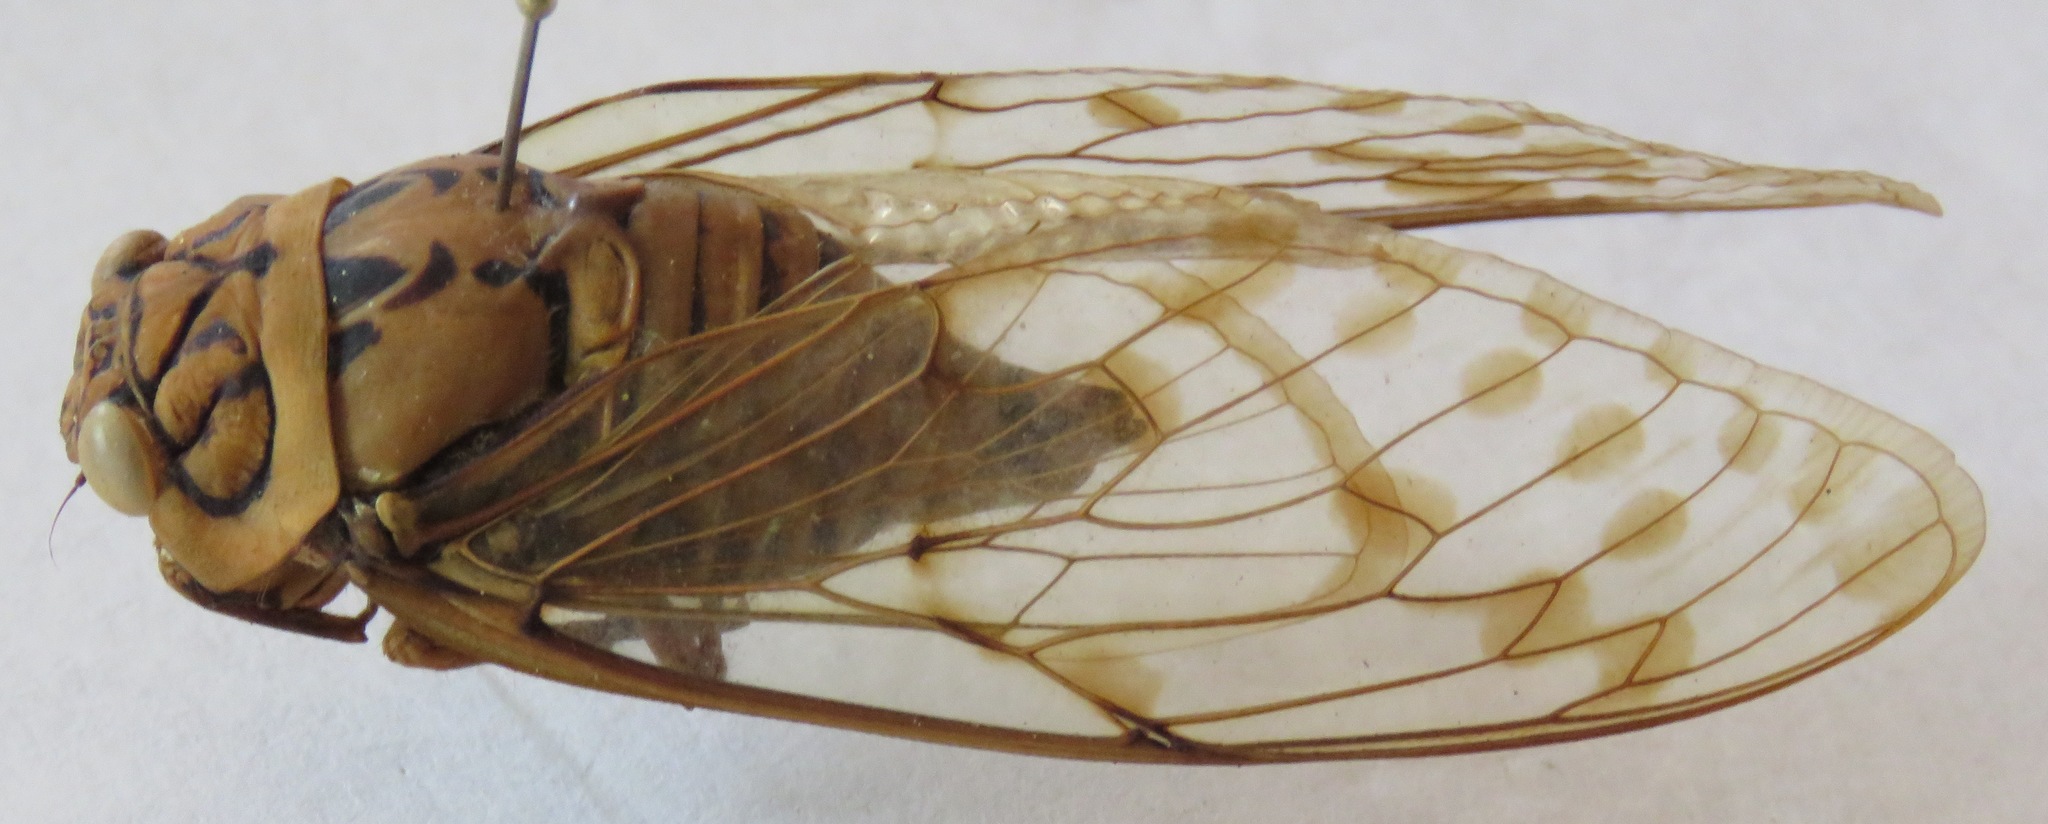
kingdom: Animalia
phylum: Arthropoda
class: Insecta
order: Hemiptera
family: Cicadidae
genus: Miranha
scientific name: Miranha imbellis
